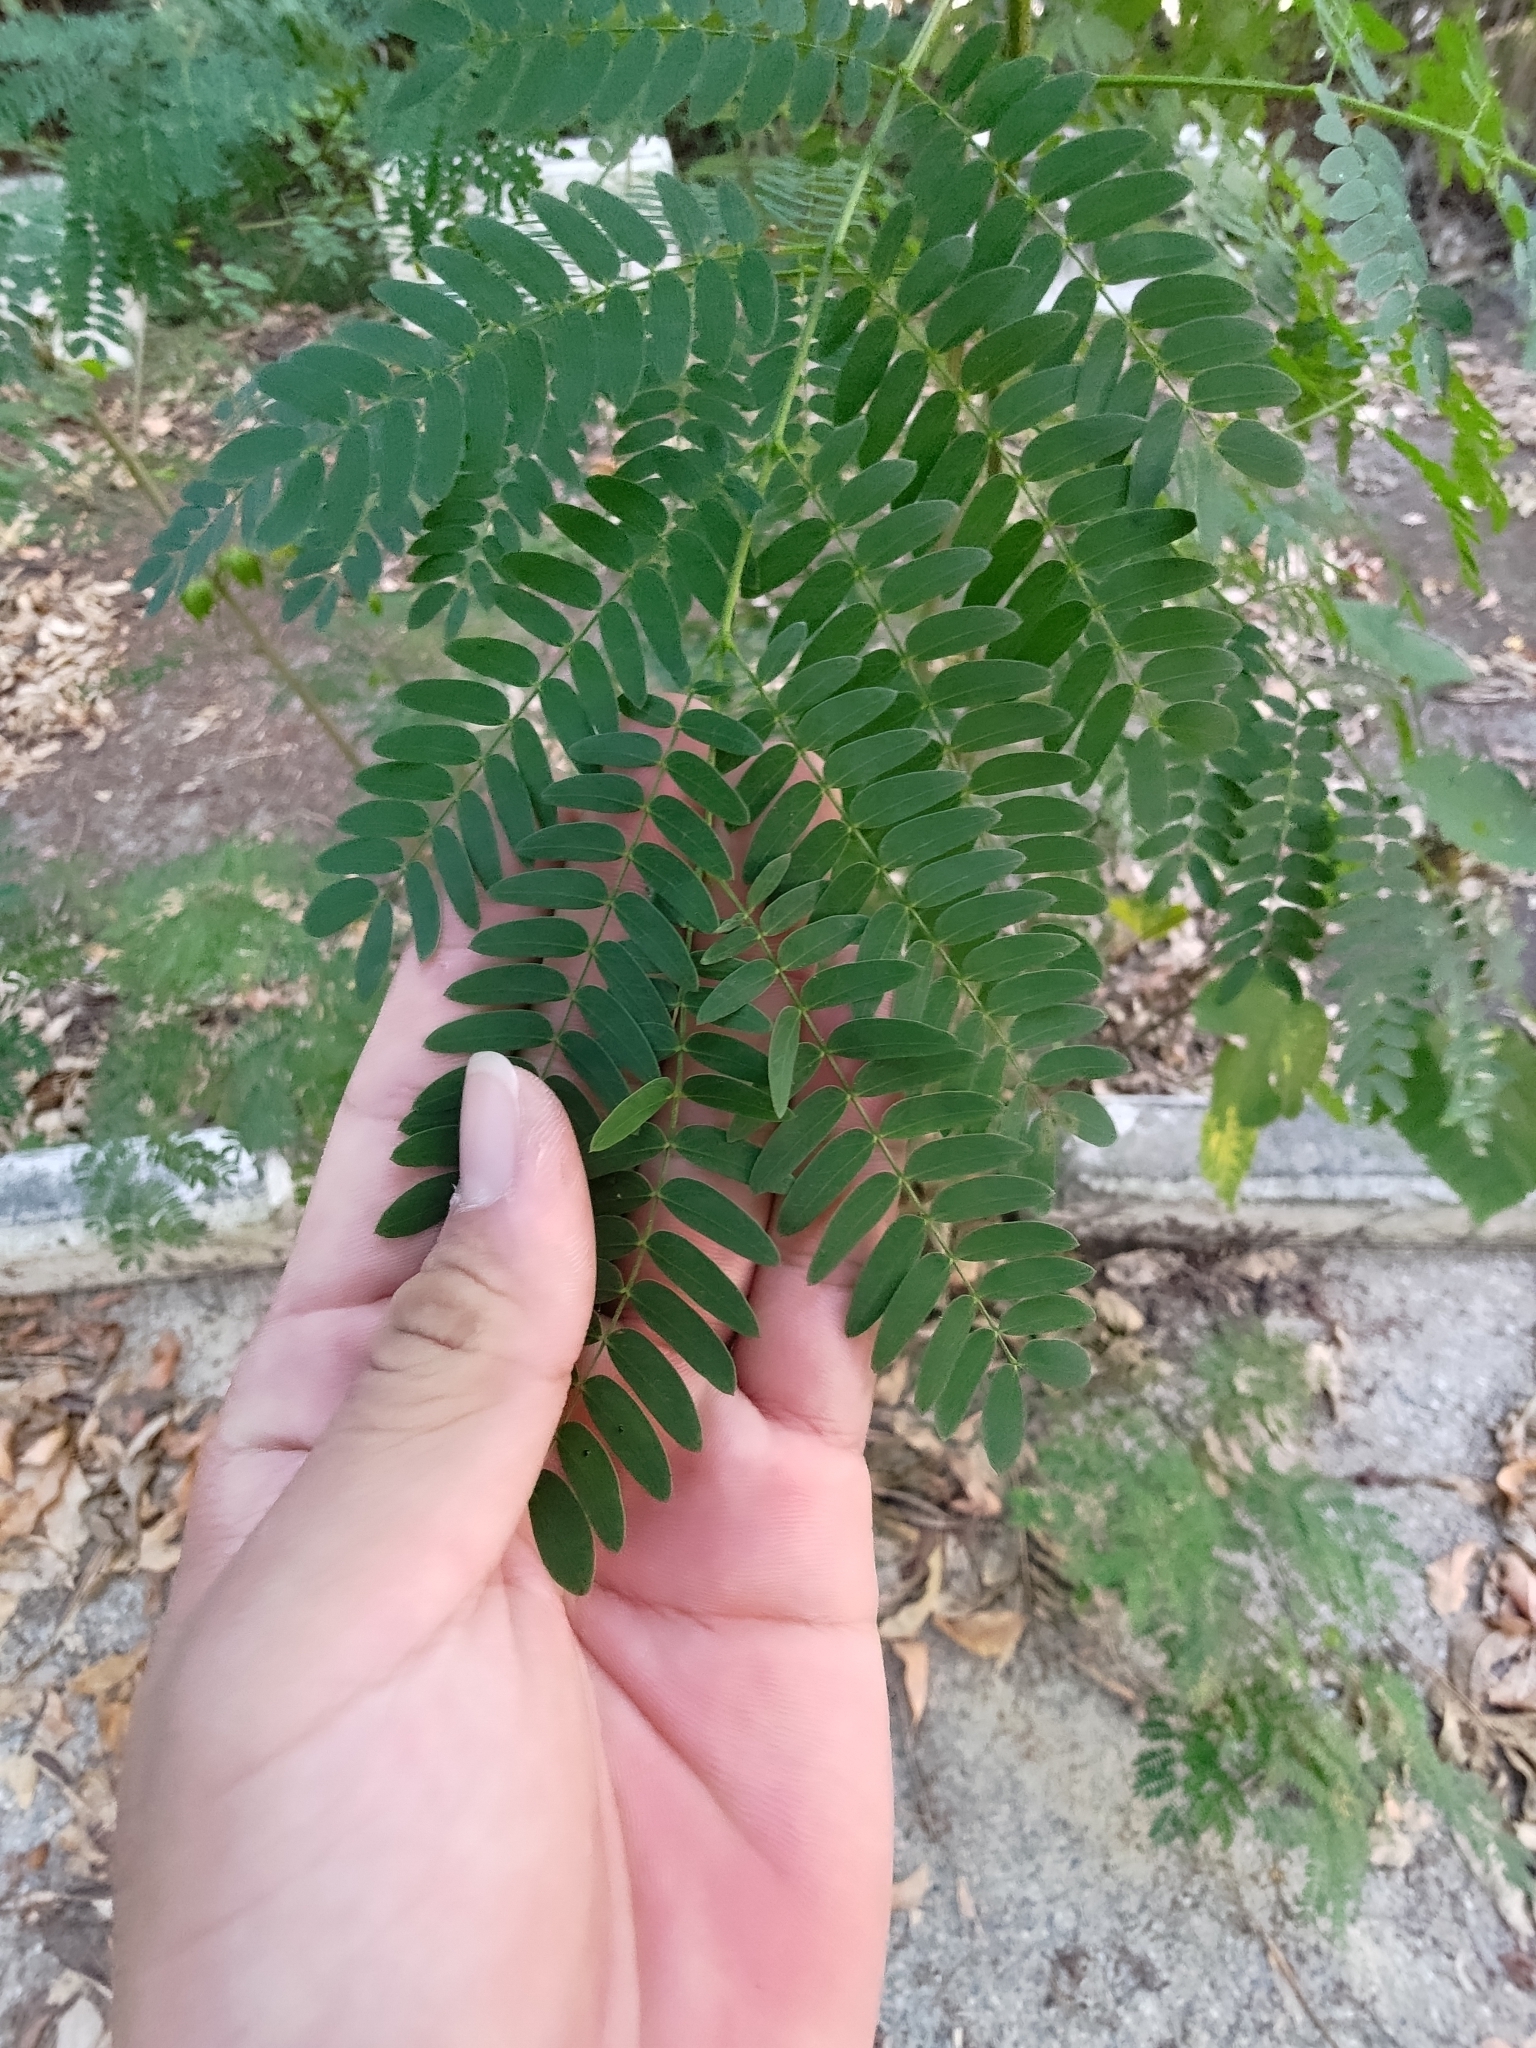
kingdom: Plantae
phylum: Tracheophyta
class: Magnoliopsida
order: Fabales
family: Fabaceae
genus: Leucaena
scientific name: Leucaena leucocephala
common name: White leadtree
